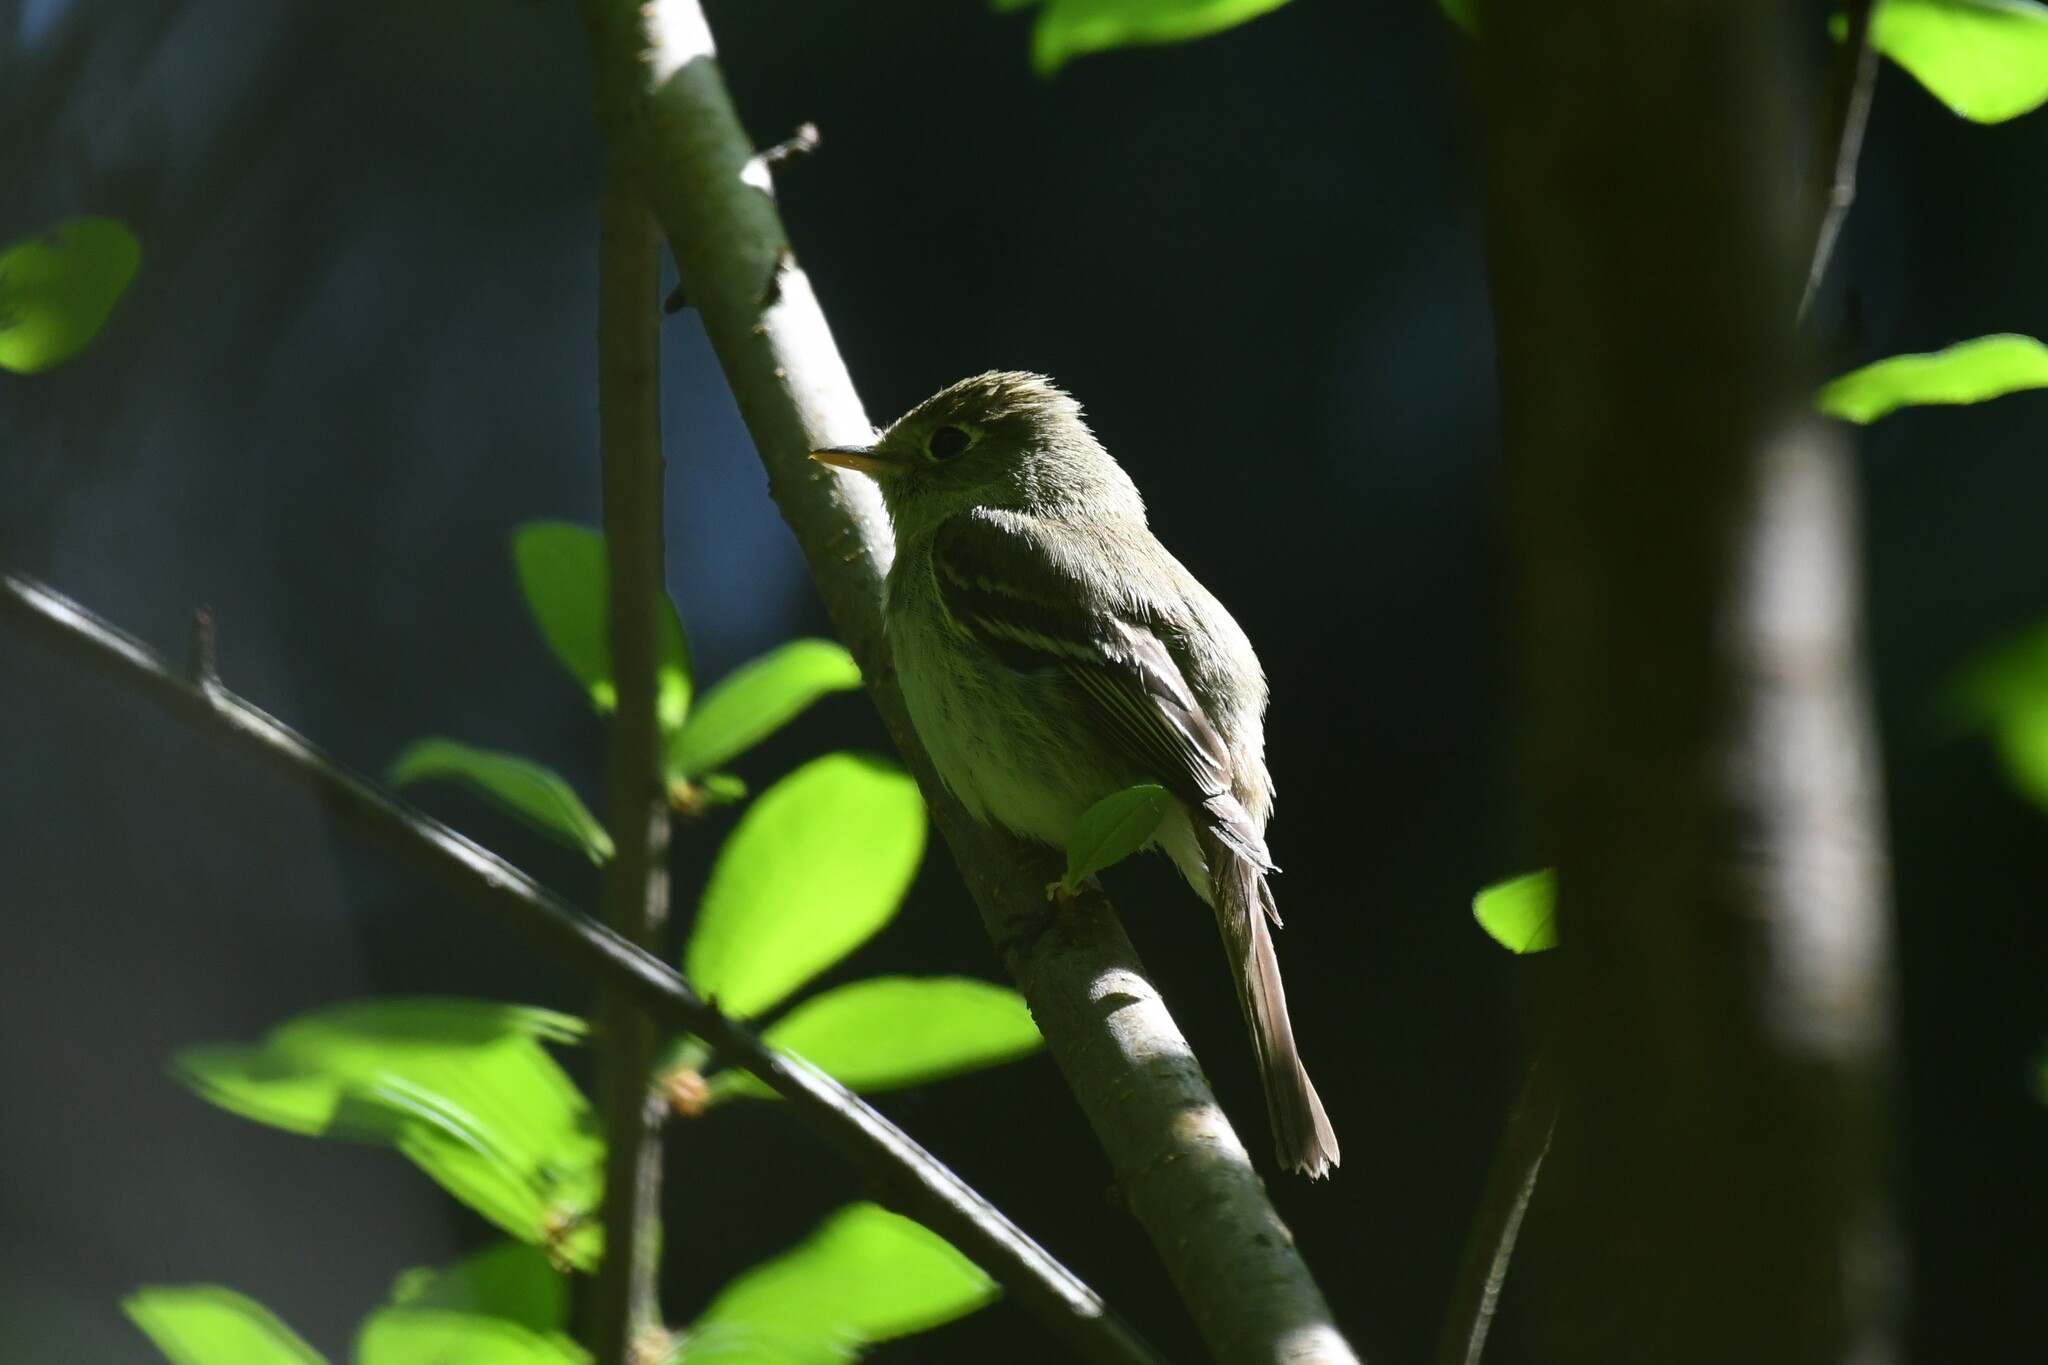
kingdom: Animalia
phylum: Chordata
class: Aves
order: Passeriformes
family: Tyrannidae
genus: Empidonax
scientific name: Empidonax difficilis
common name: Pacific-slope flycatcher
